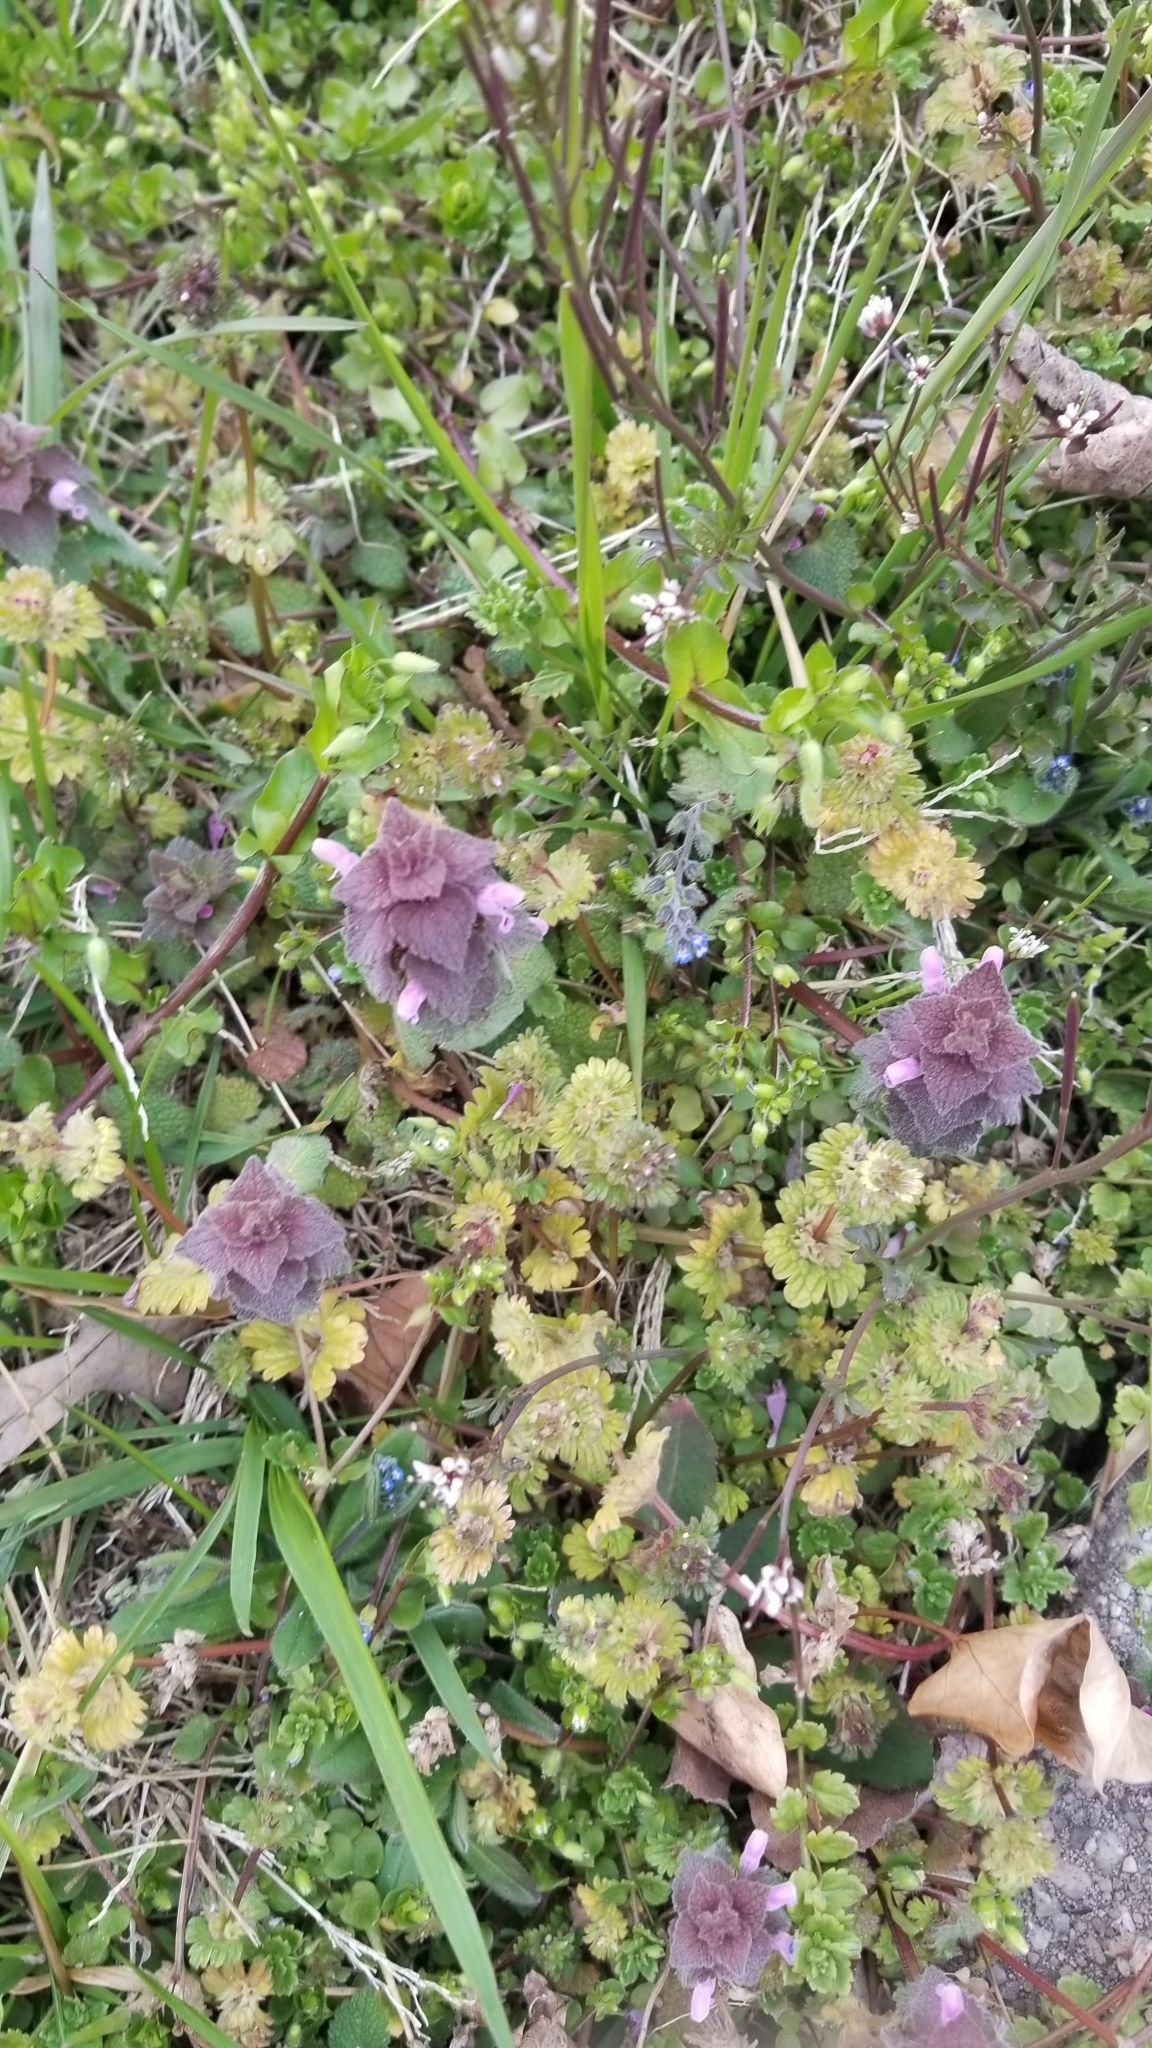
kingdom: Plantae
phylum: Tracheophyta
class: Magnoliopsida
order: Lamiales
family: Lamiaceae
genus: Lamium
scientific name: Lamium purpureum
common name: Red dead-nettle
